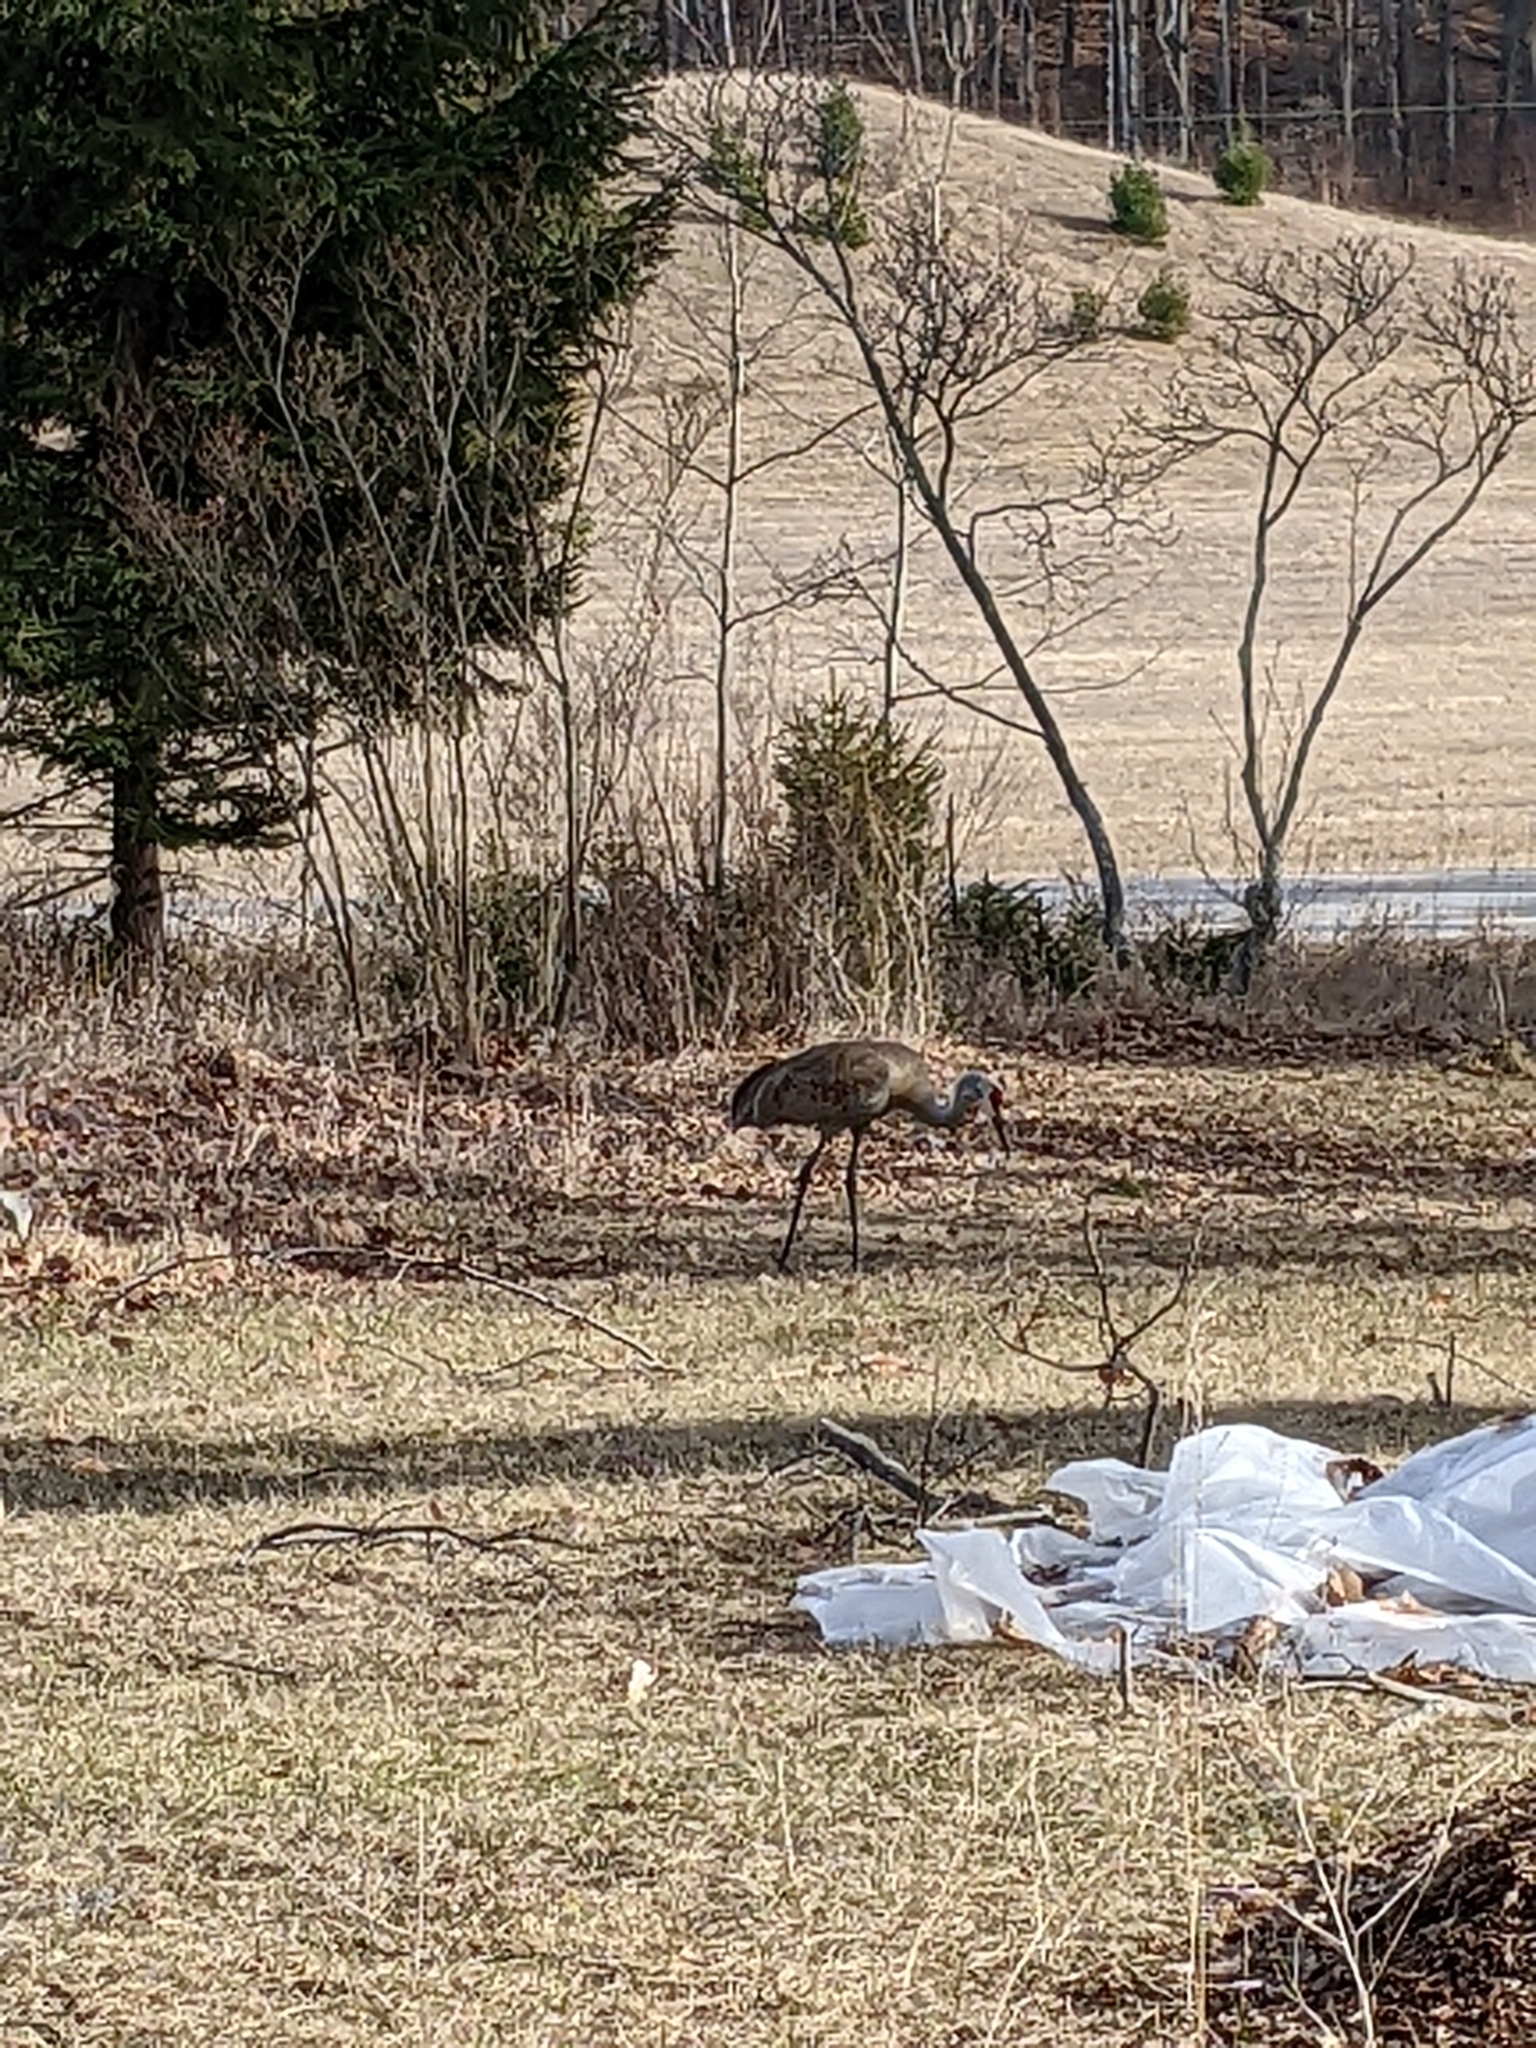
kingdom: Animalia
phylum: Chordata
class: Aves
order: Gruiformes
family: Gruidae
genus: Grus
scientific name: Grus canadensis
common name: Sandhill crane
